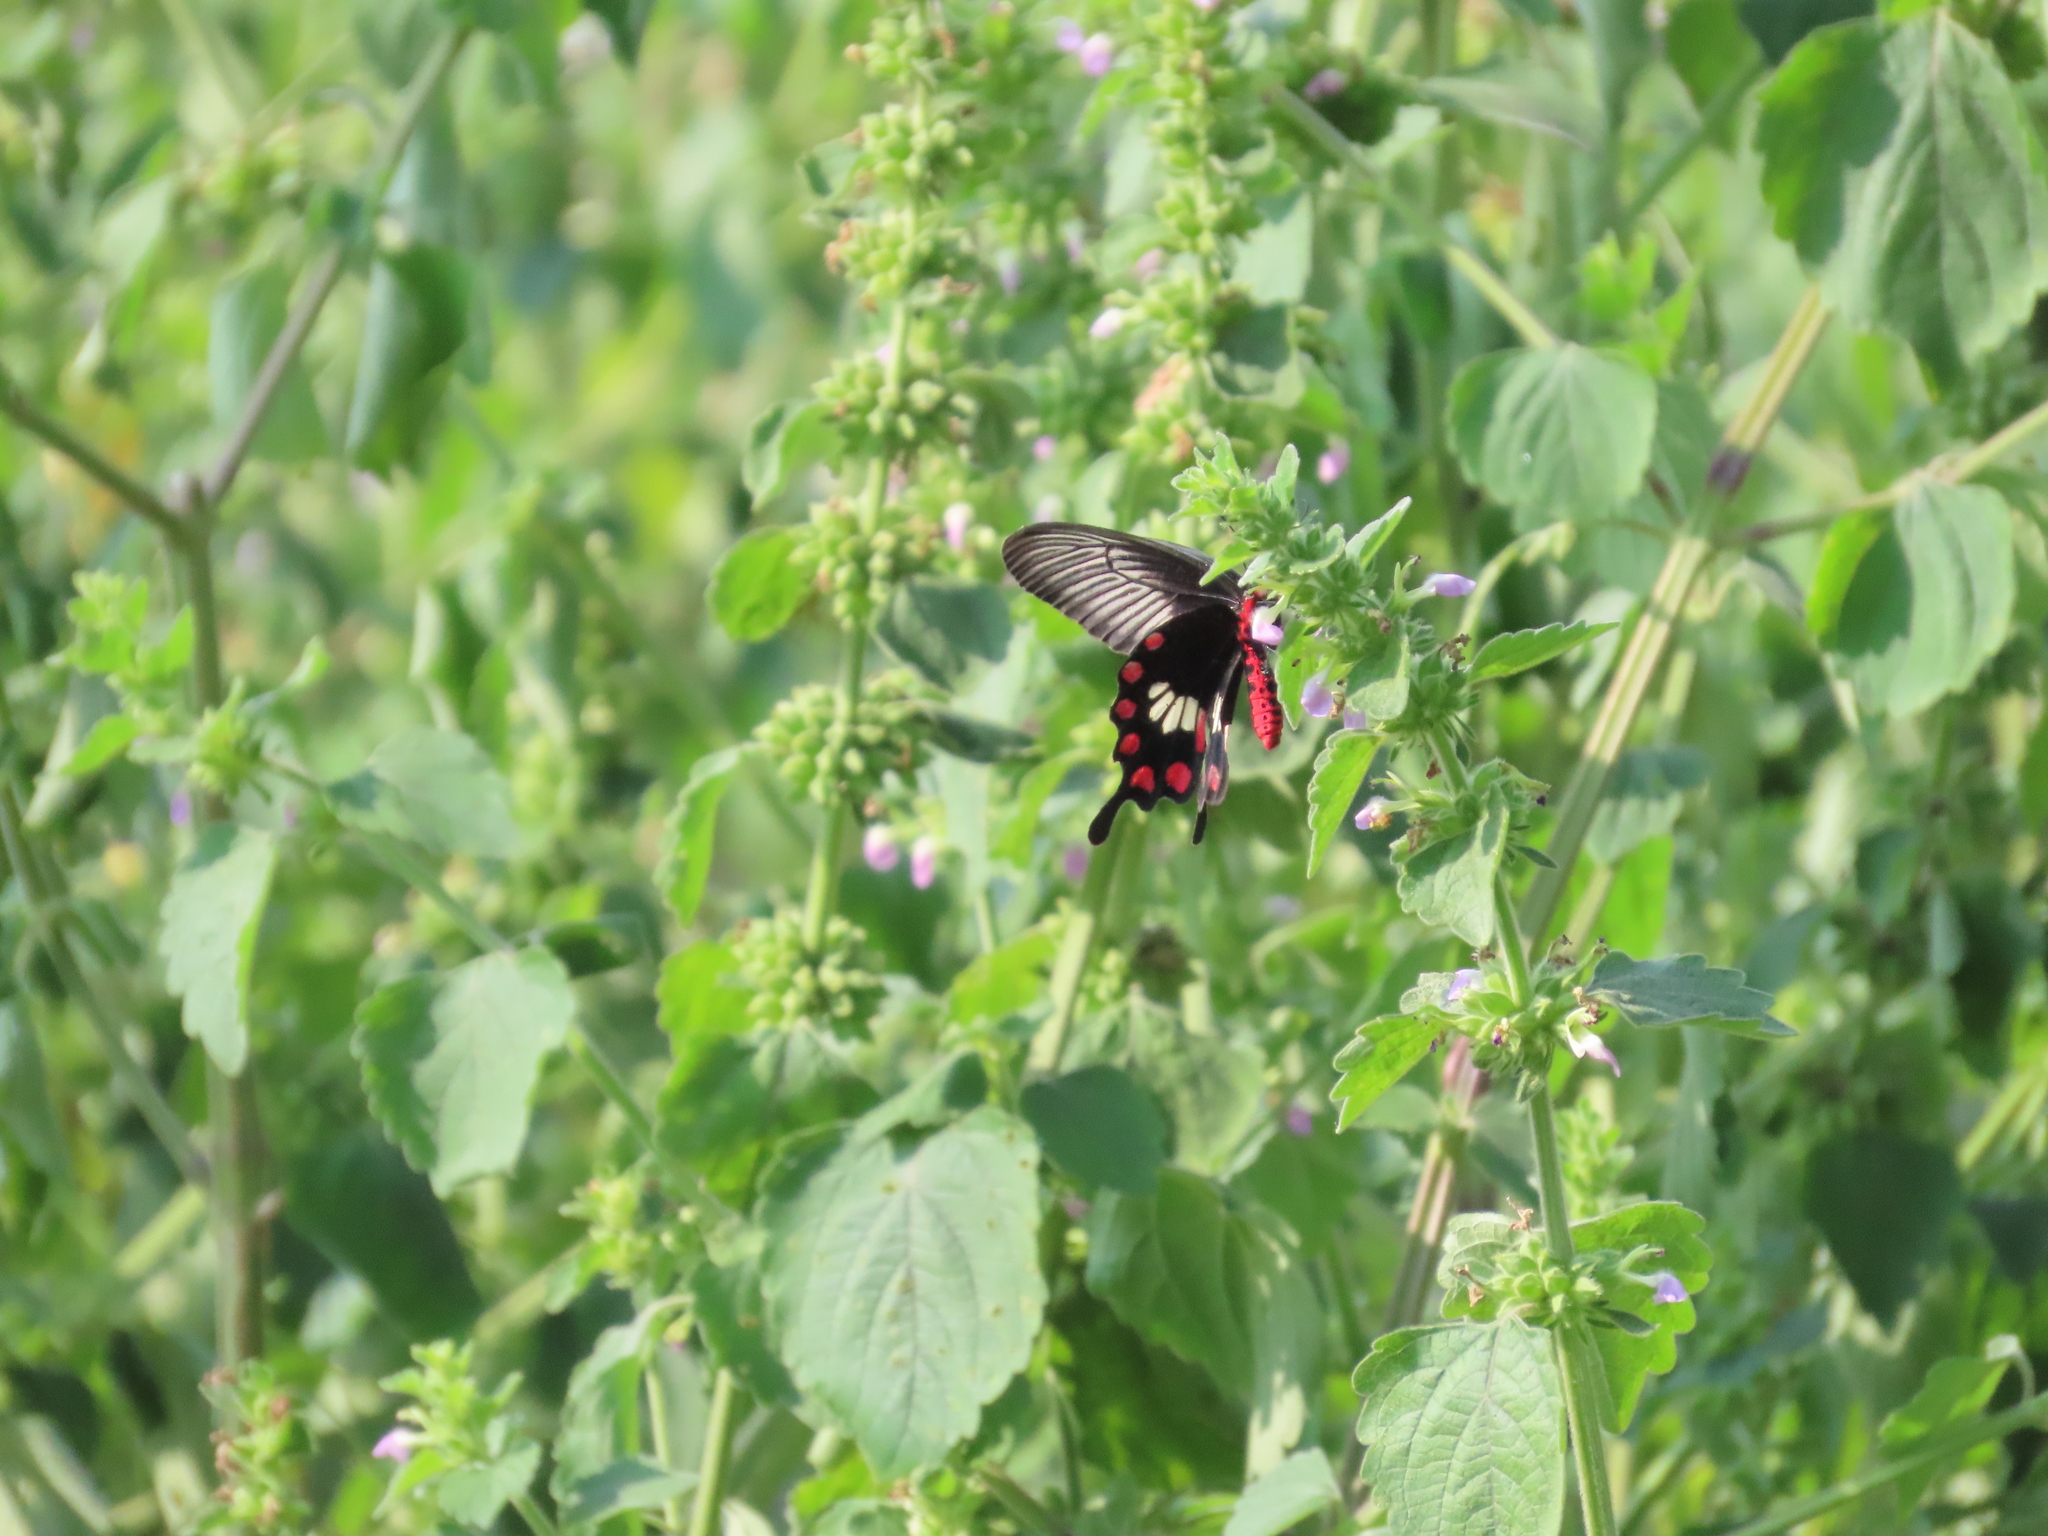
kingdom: Animalia
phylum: Arthropoda
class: Insecta
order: Lepidoptera
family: Papilionidae
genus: Pachliopta
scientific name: Pachliopta aristolochiae
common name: Common rose
